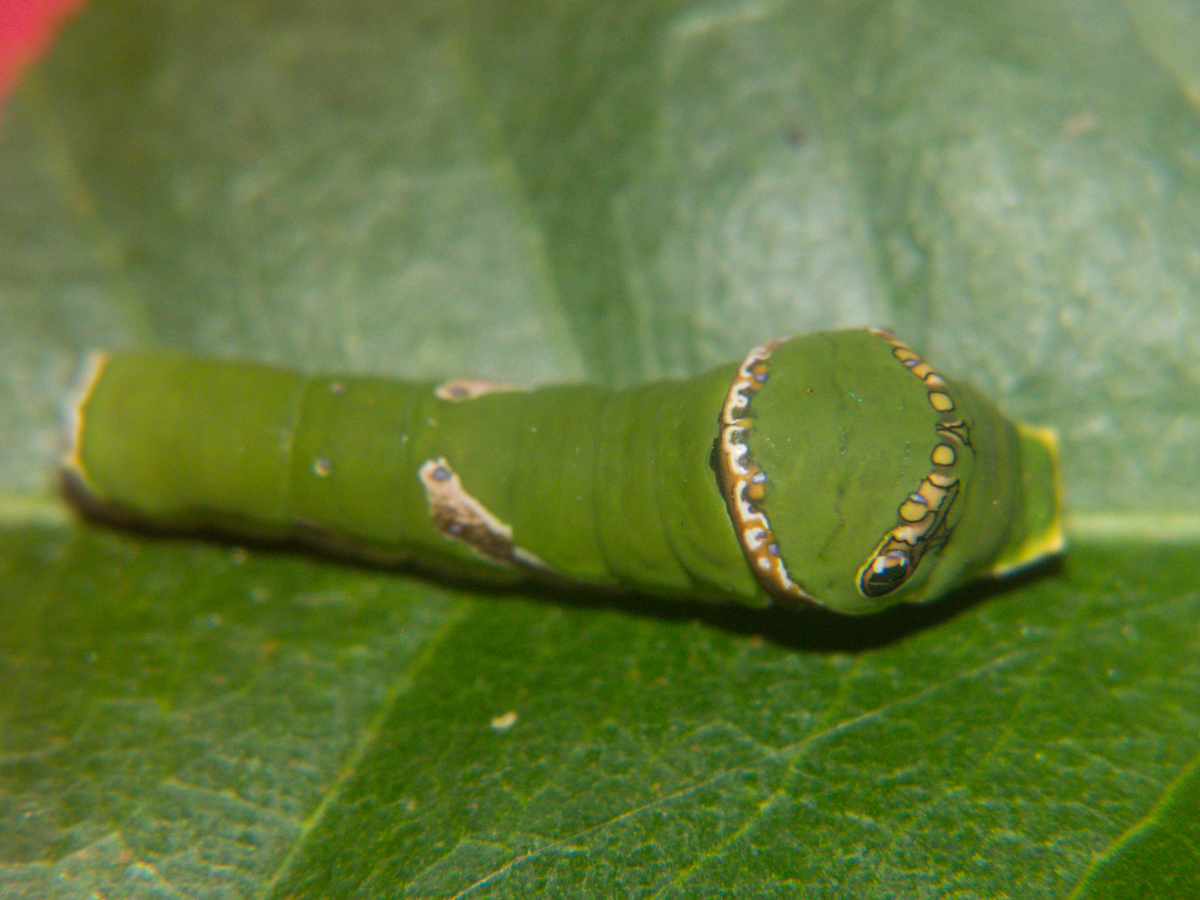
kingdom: Animalia
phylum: Arthropoda
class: Insecta
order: Lepidoptera
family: Papilionidae
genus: Papilio
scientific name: Papilio polytes
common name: Common mormon
